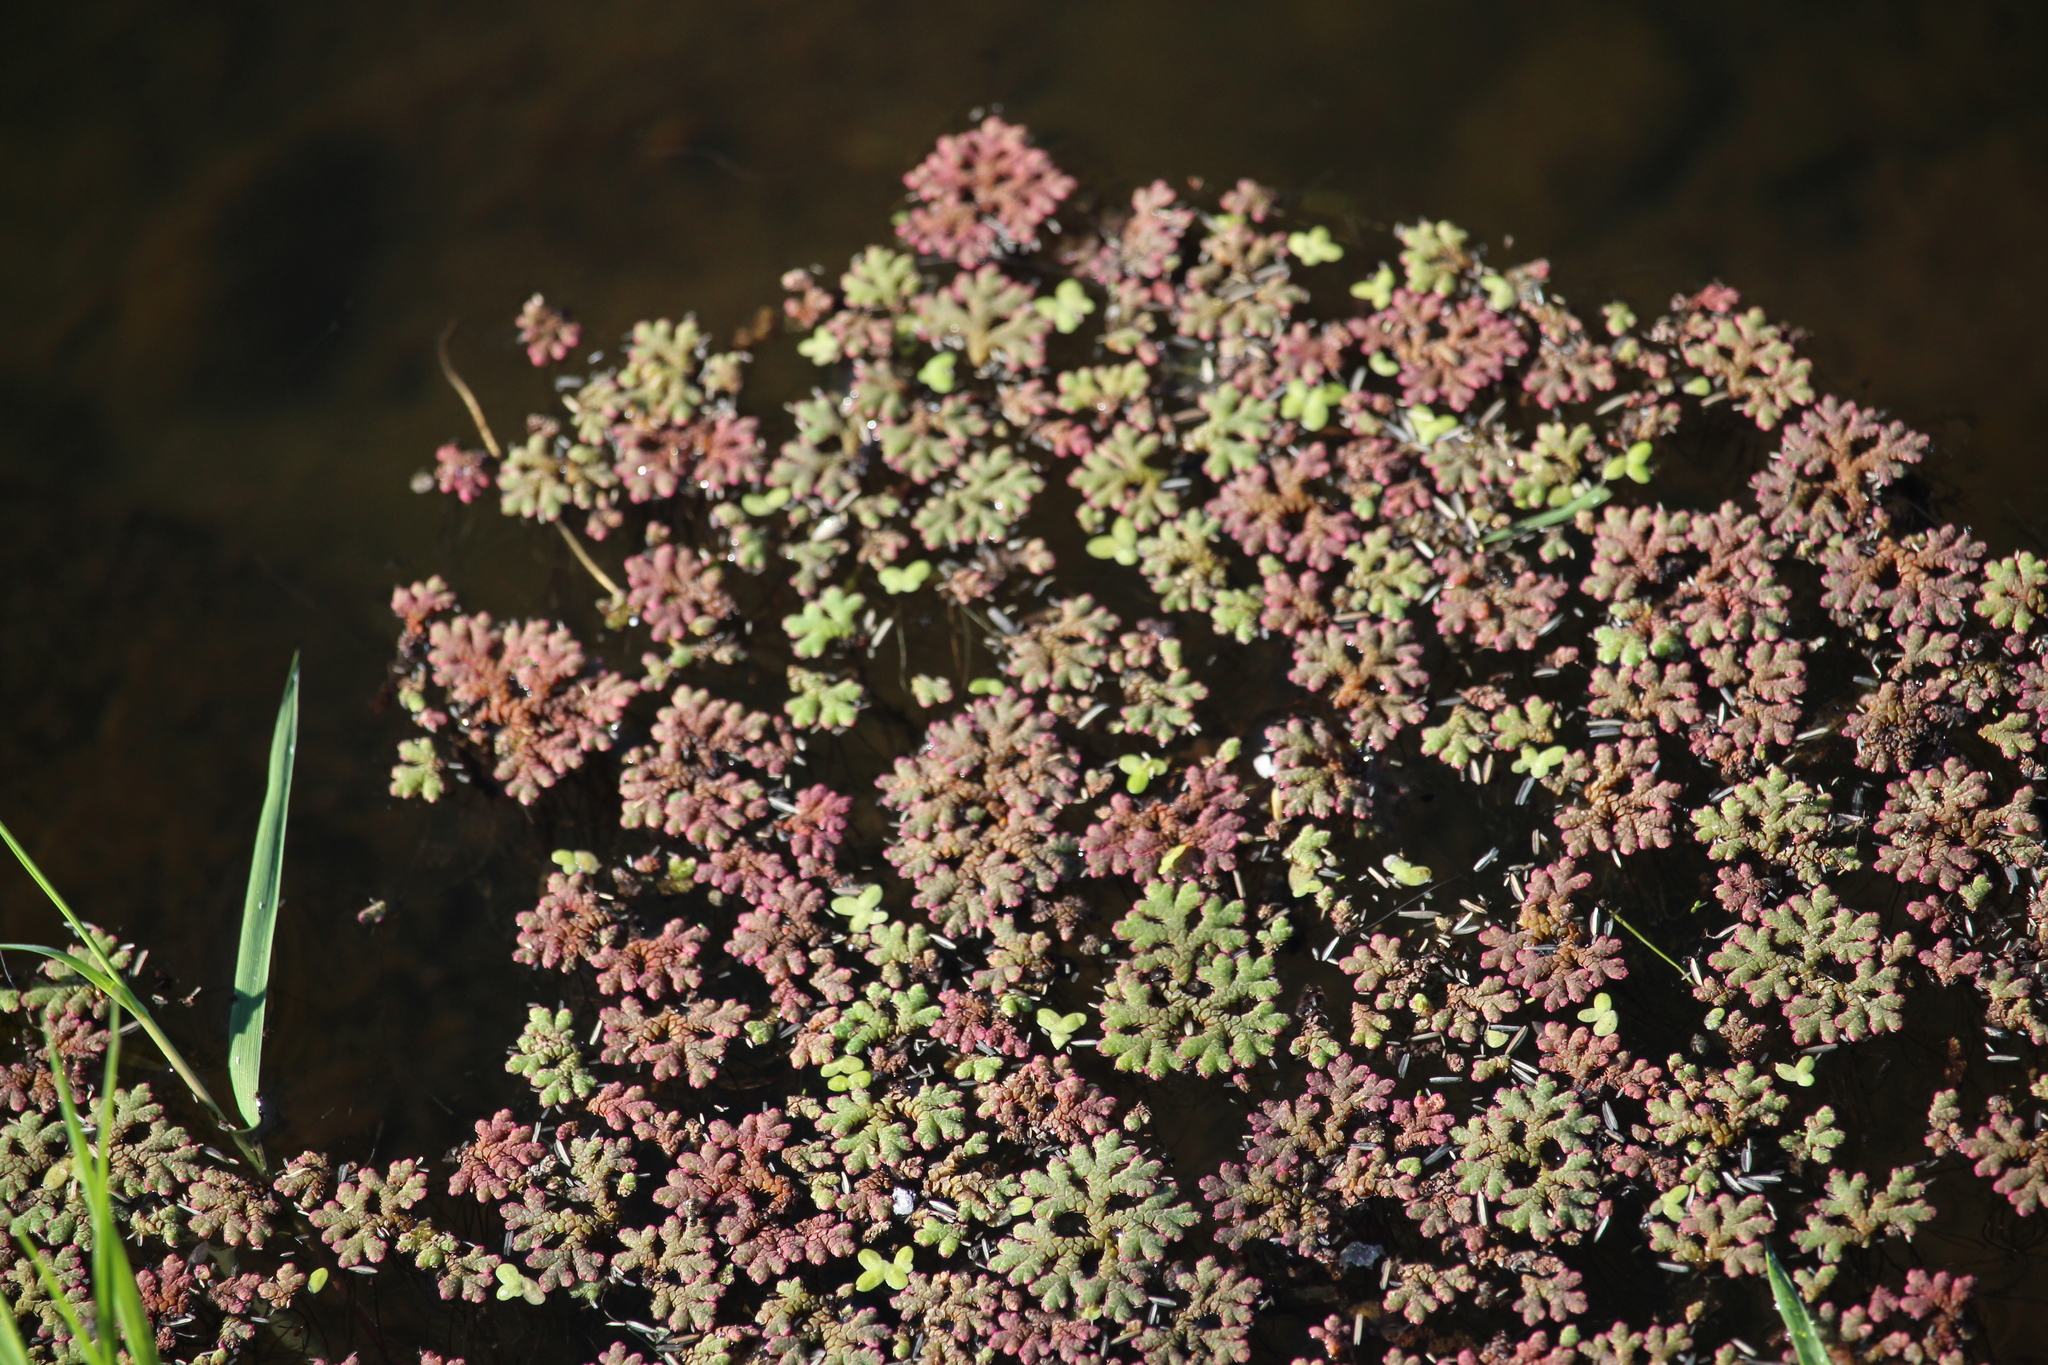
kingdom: Plantae
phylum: Tracheophyta
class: Polypodiopsida
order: Salviniales
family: Salviniaceae
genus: Azolla
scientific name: Azolla rubra
